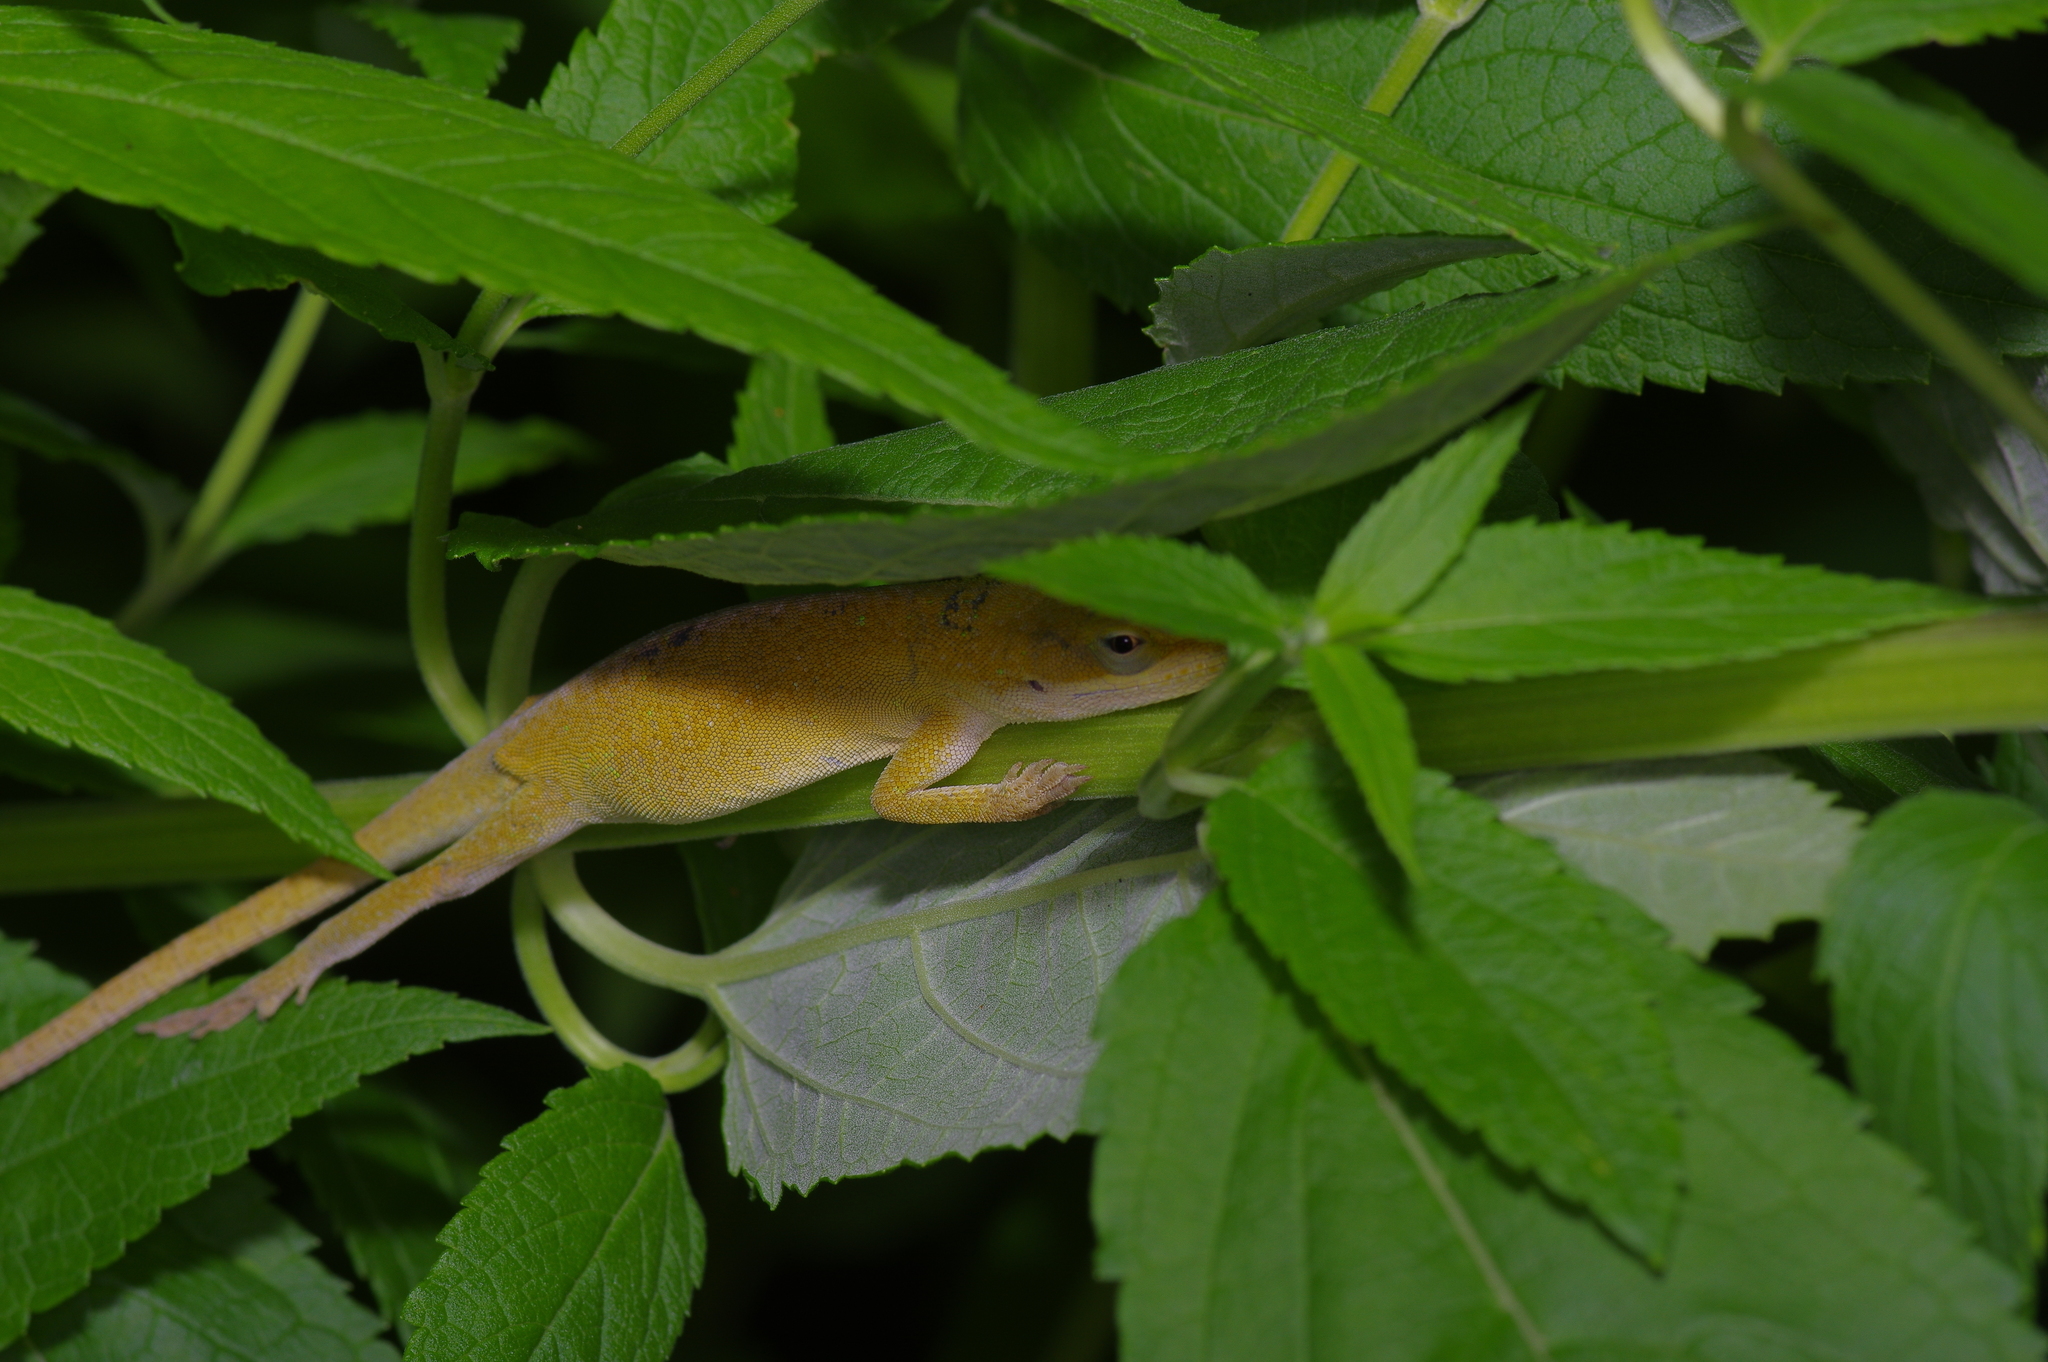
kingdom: Animalia
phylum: Chordata
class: Squamata
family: Dactyloidae
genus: Anolis
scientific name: Anolis carolinensis
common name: Green anole
